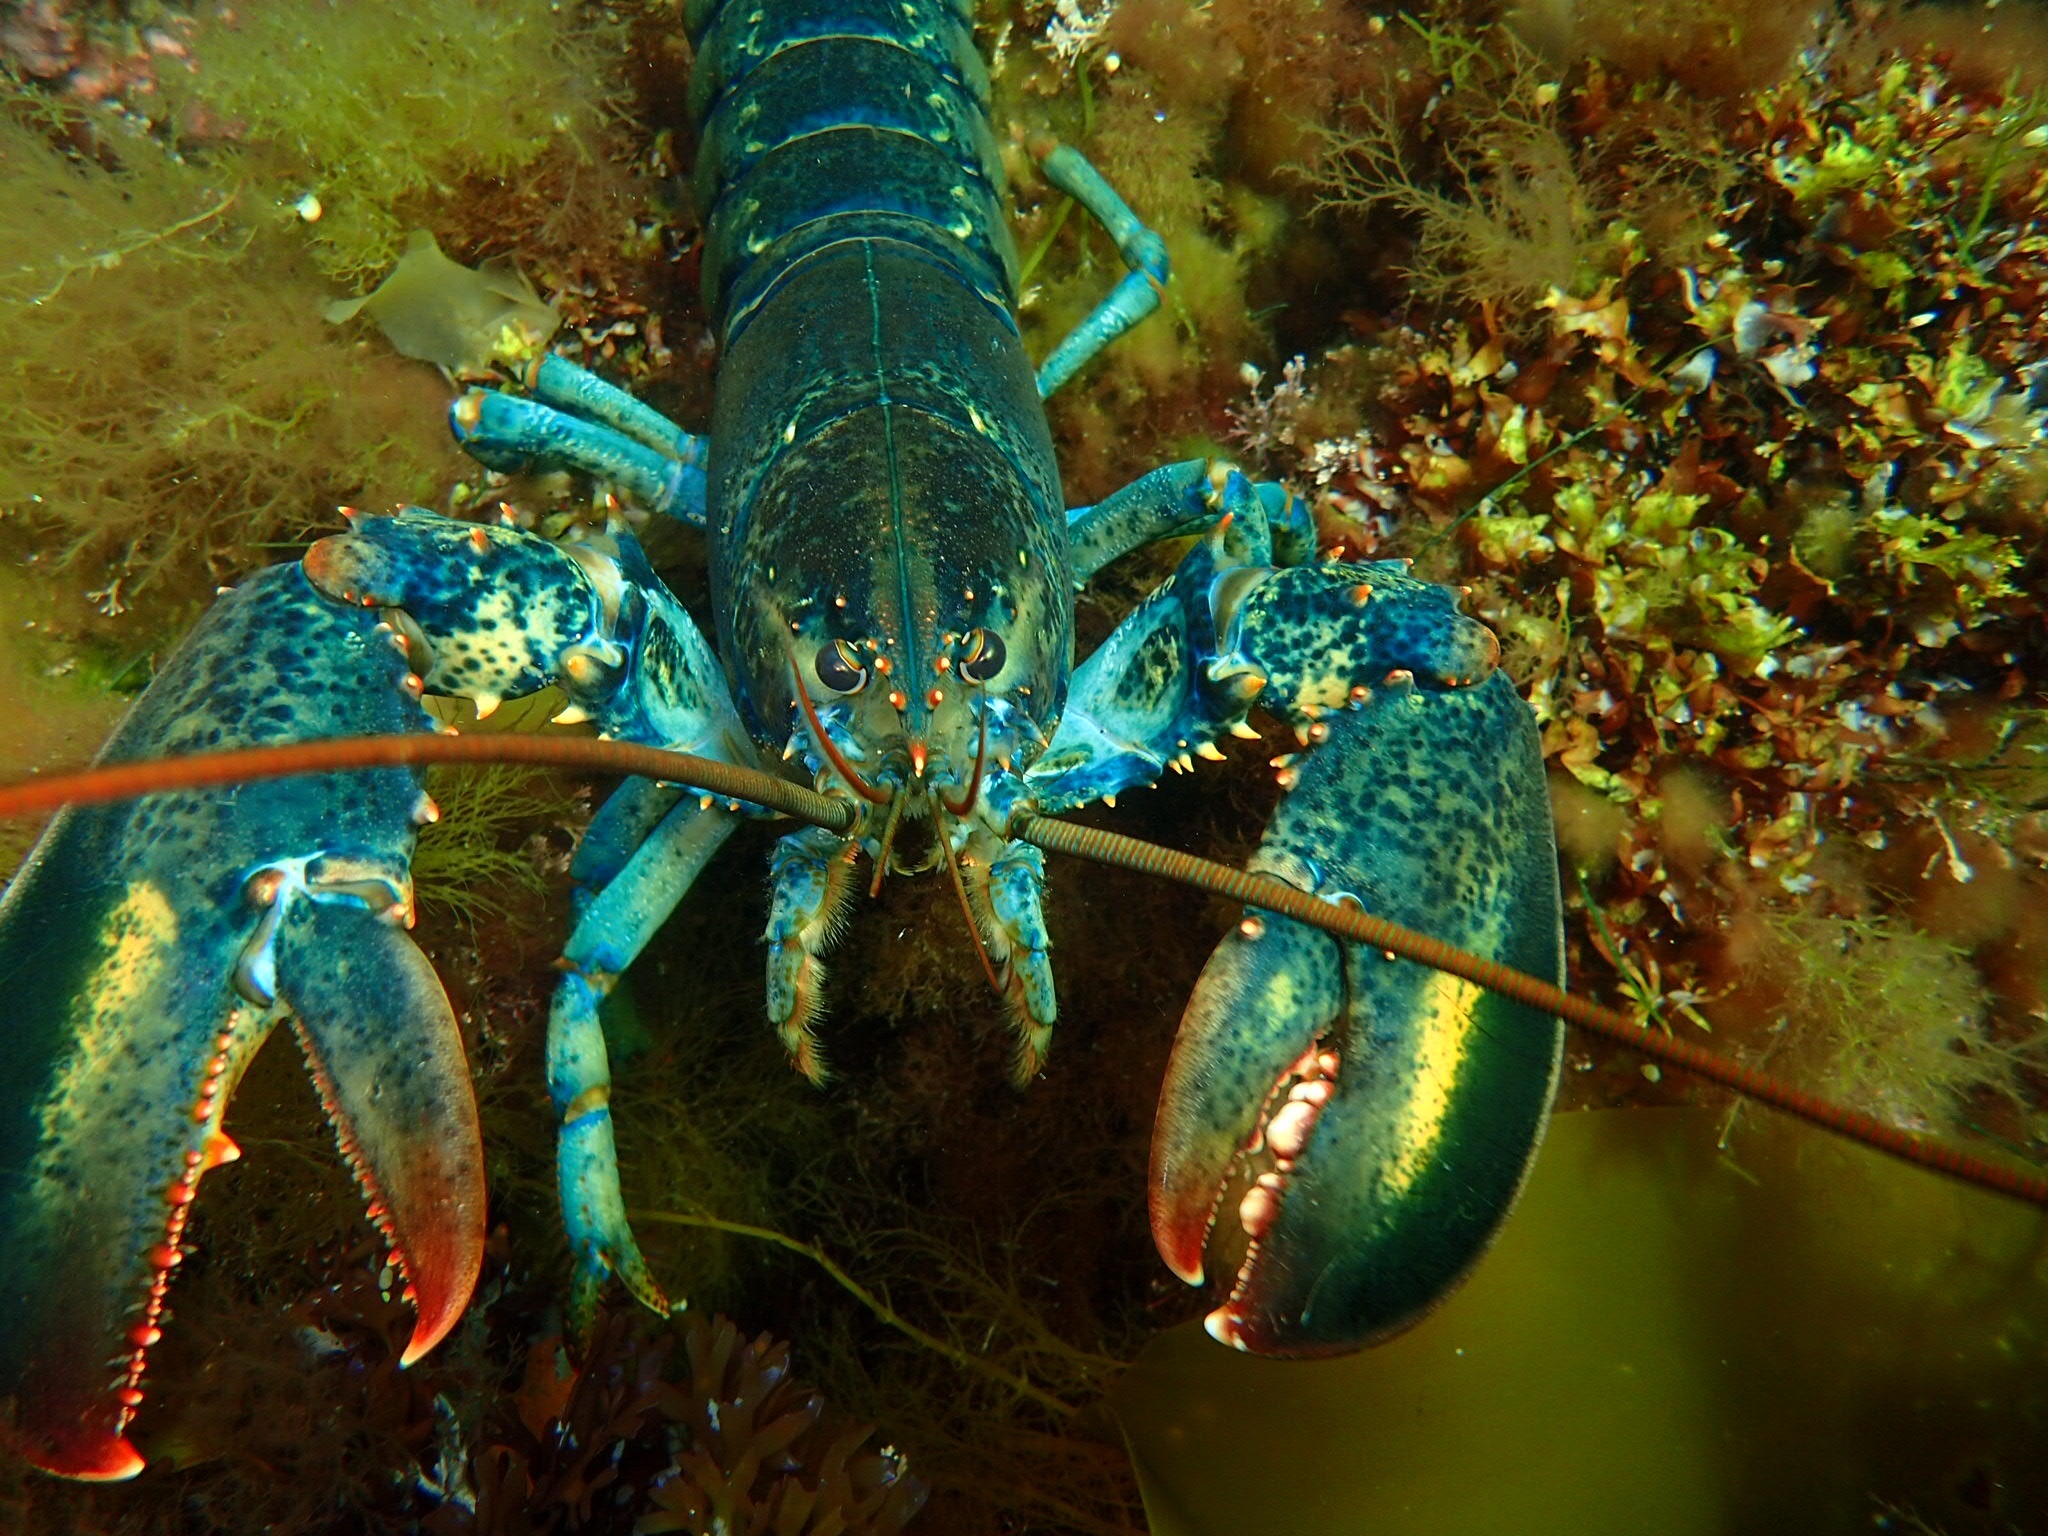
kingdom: Animalia
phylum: Arthropoda
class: Malacostraca
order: Decapoda
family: Nephropidae
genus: Homarus
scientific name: Homarus americanus
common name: American lobster
